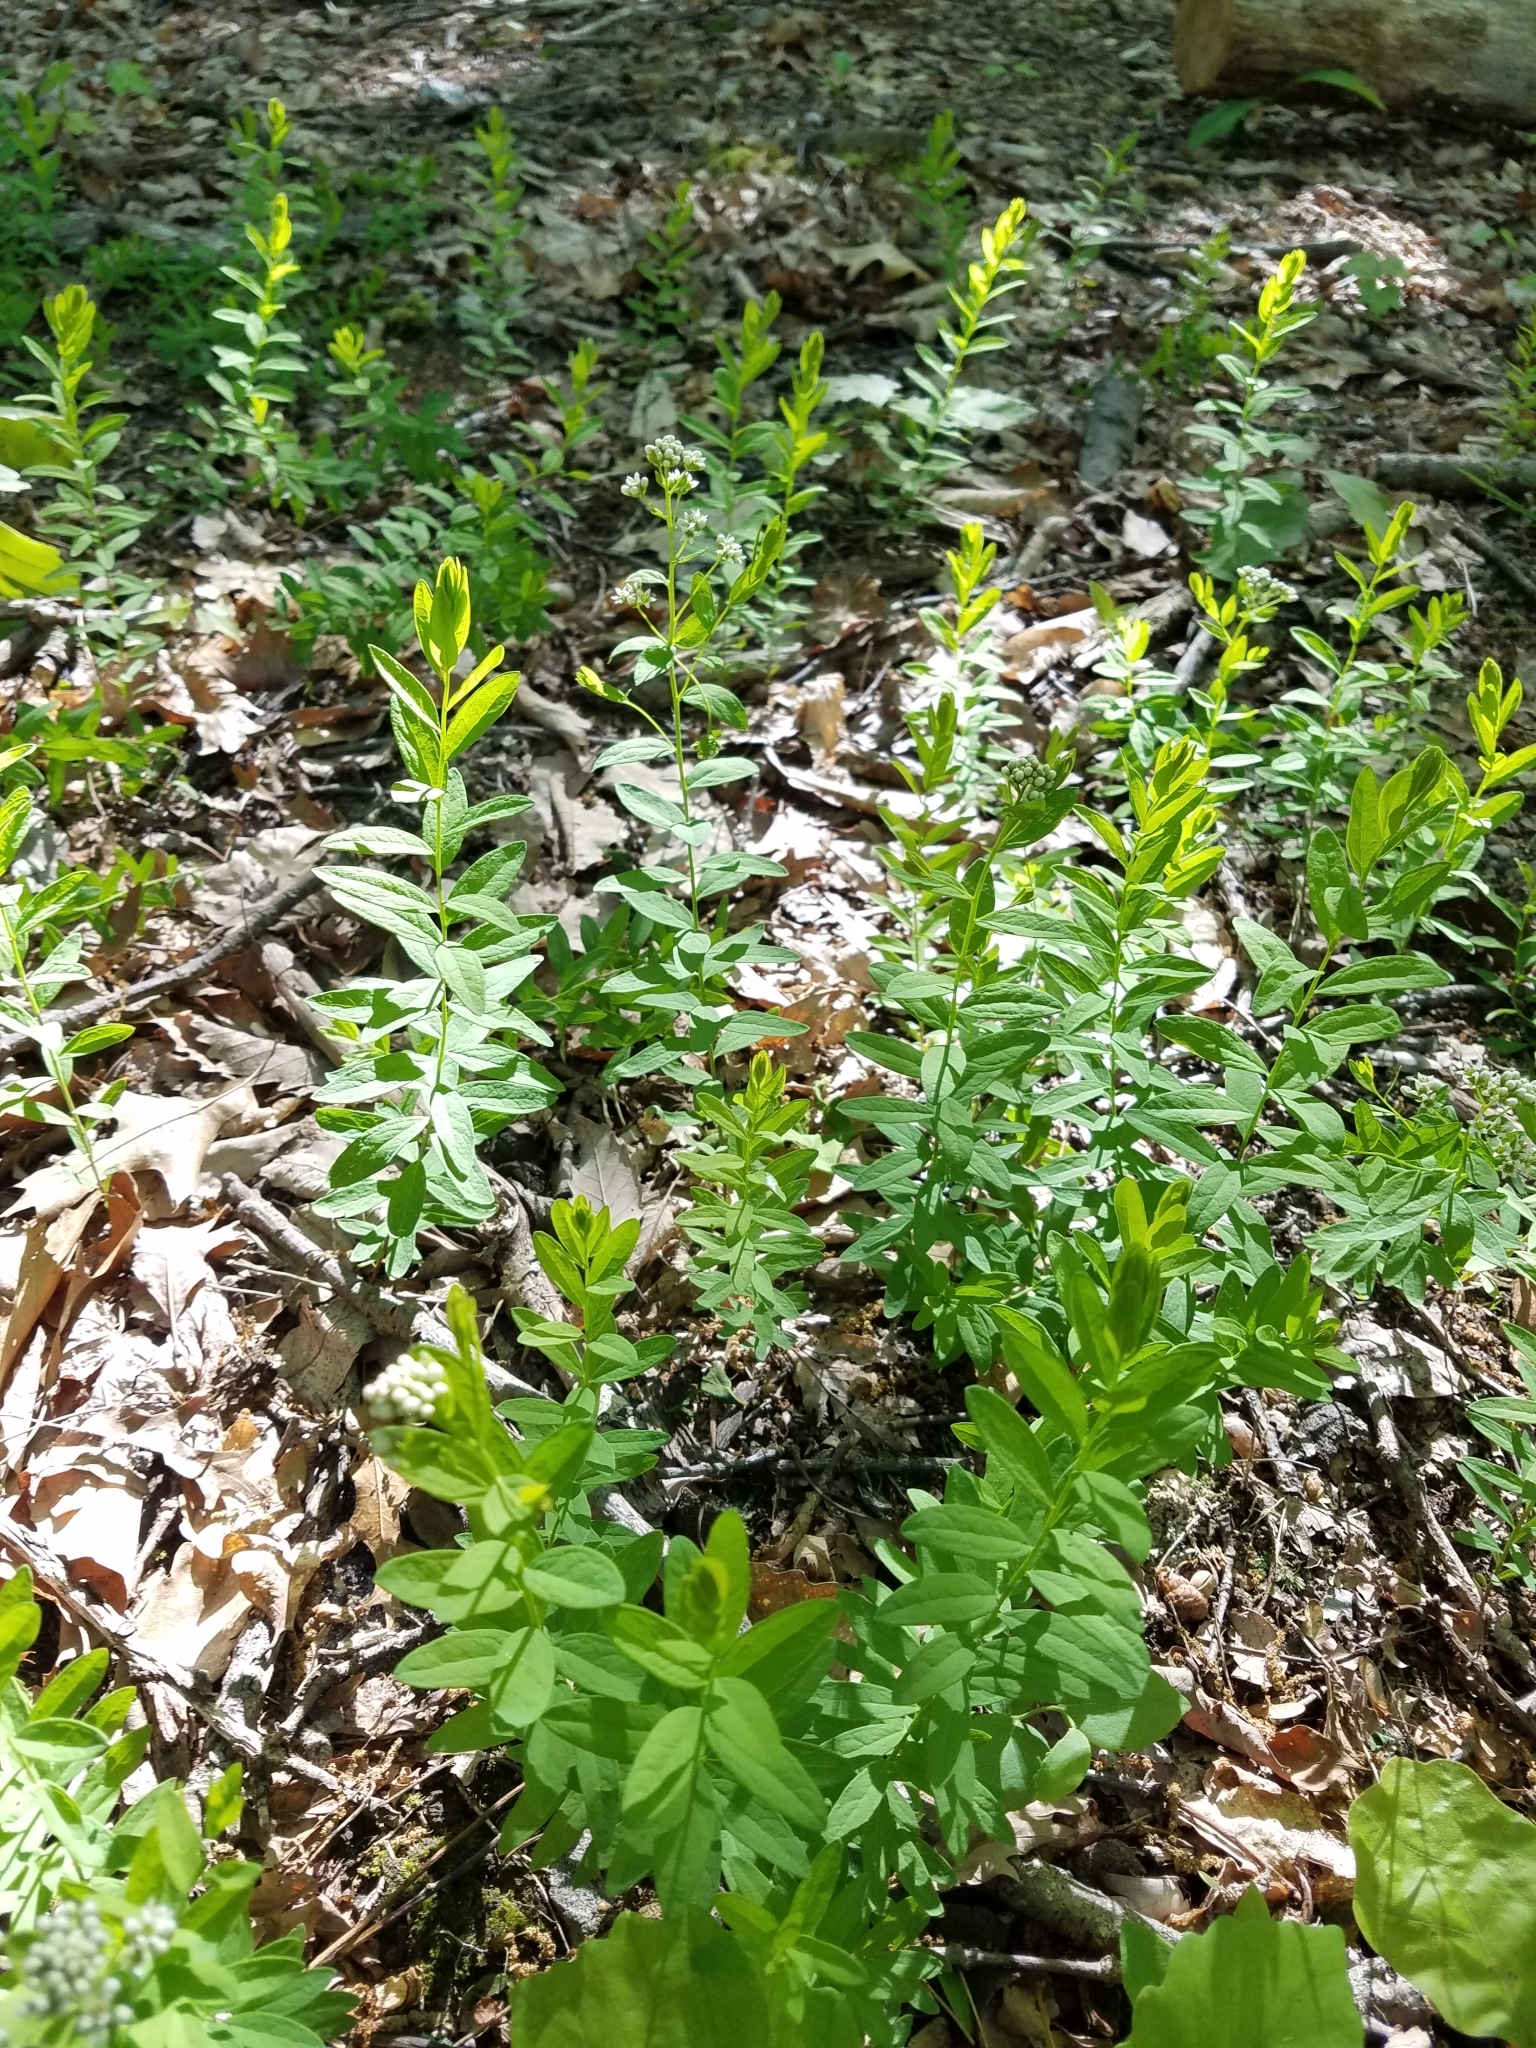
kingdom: Plantae
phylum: Tracheophyta
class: Magnoliopsida
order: Santalales
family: Comandraceae
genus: Comandra
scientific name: Comandra umbellata
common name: Bastard toadflax
